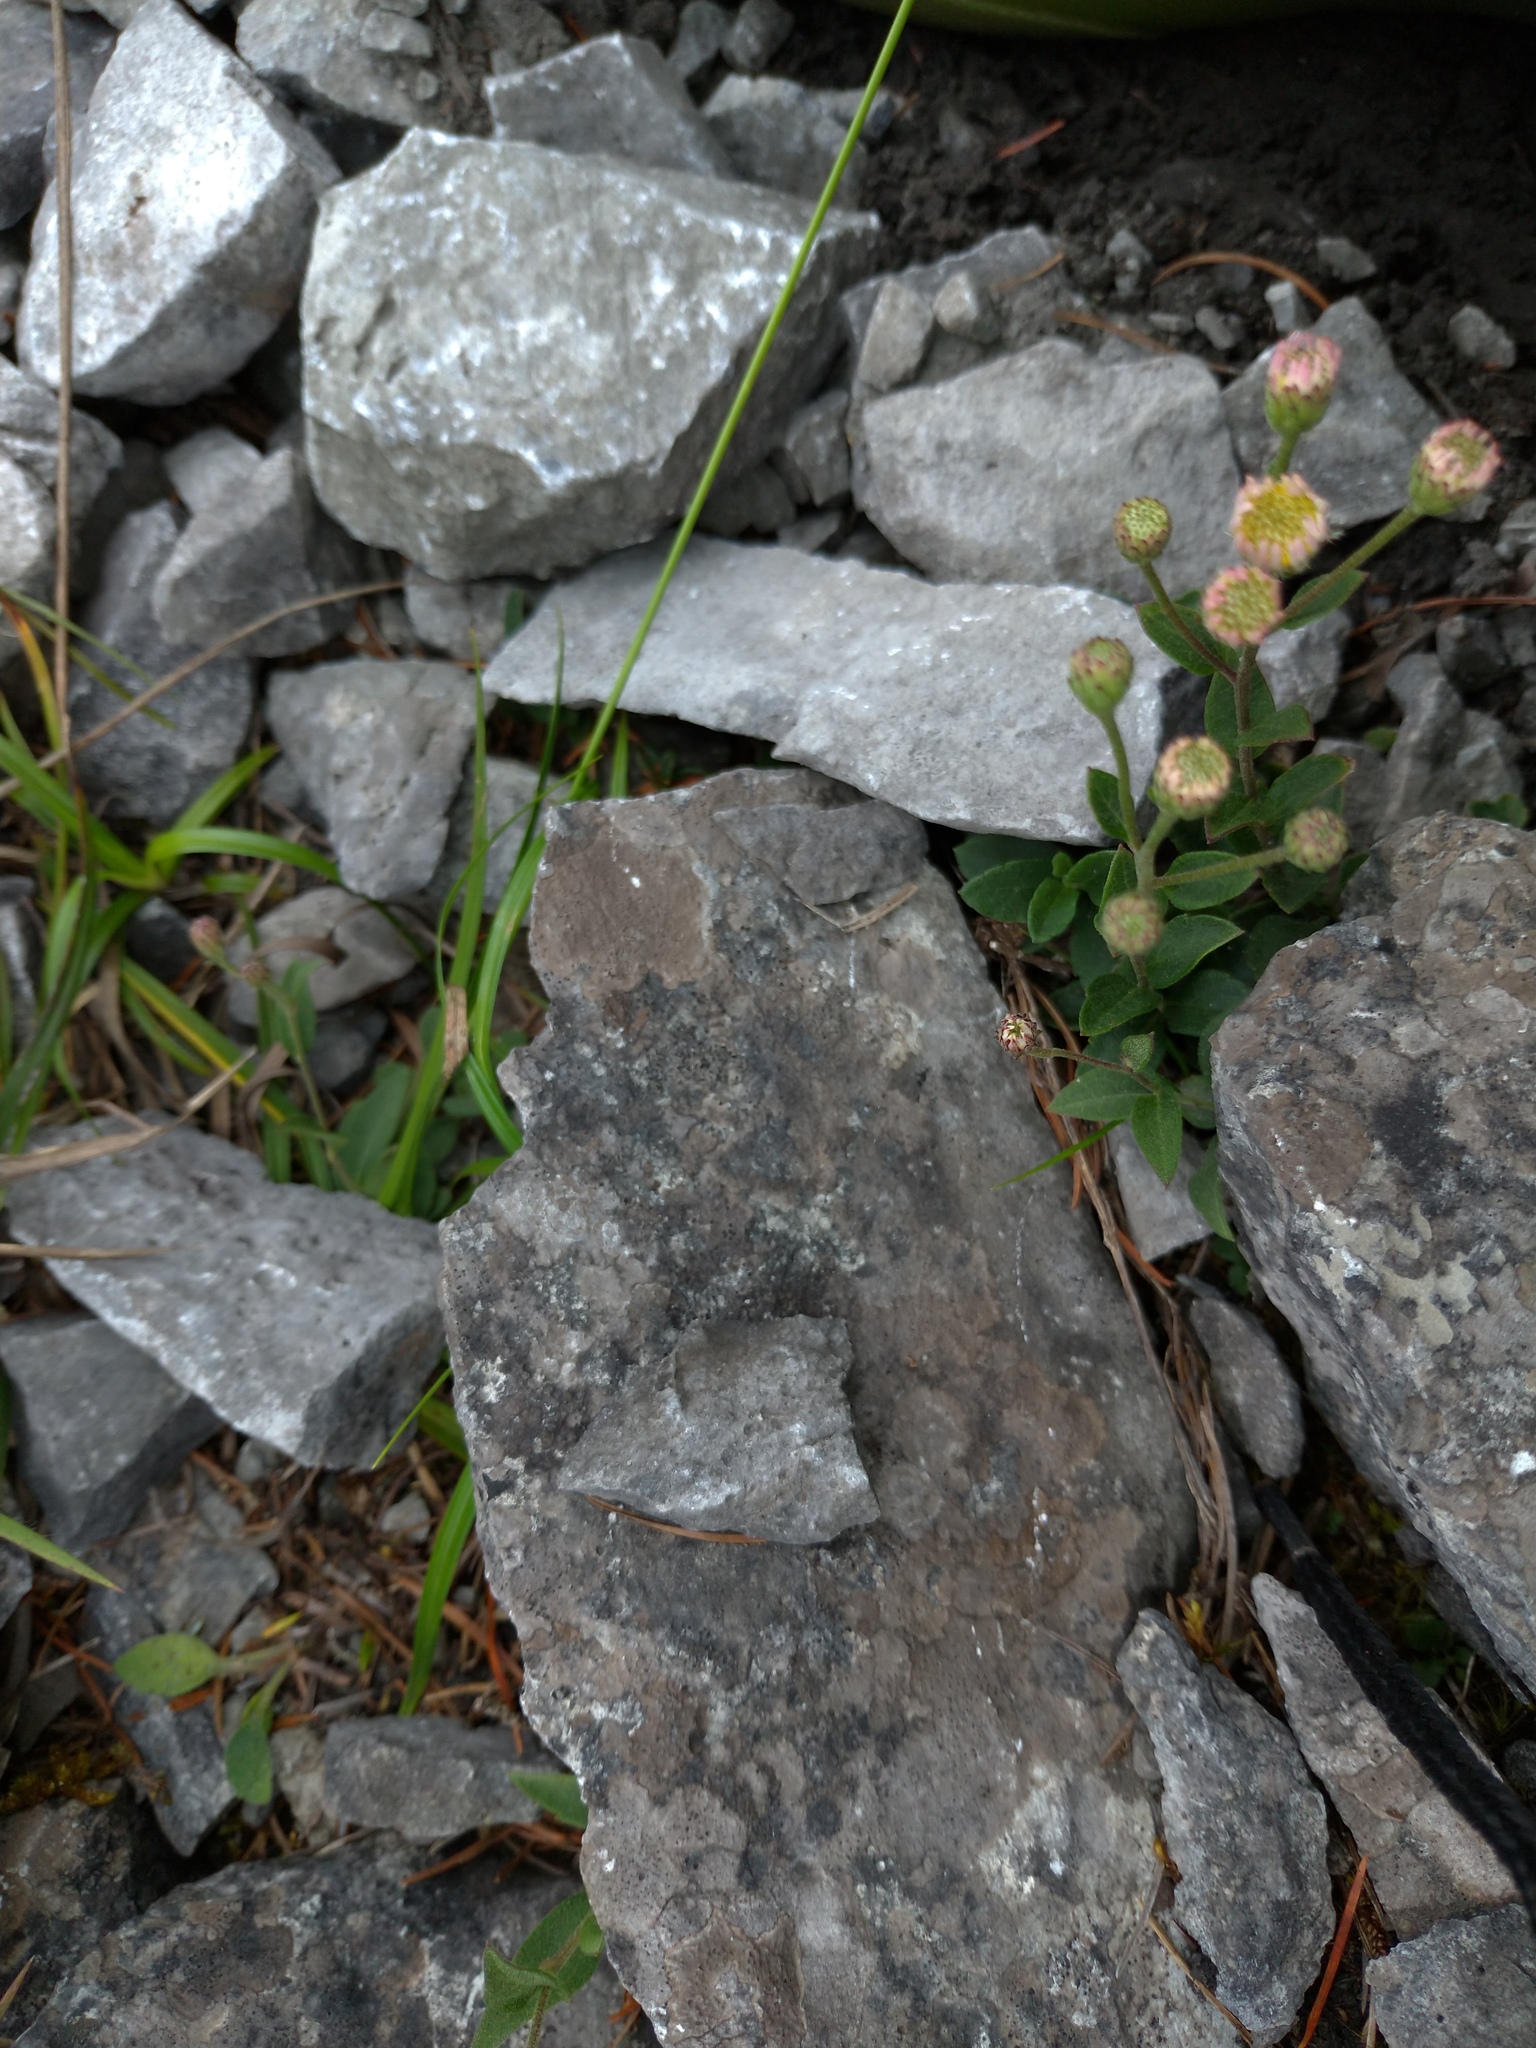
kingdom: Plantae
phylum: Tracheophyta
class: Magnoliopsida
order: Asterales
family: Asteraceae
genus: Aster
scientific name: Aster chingshuiensis
